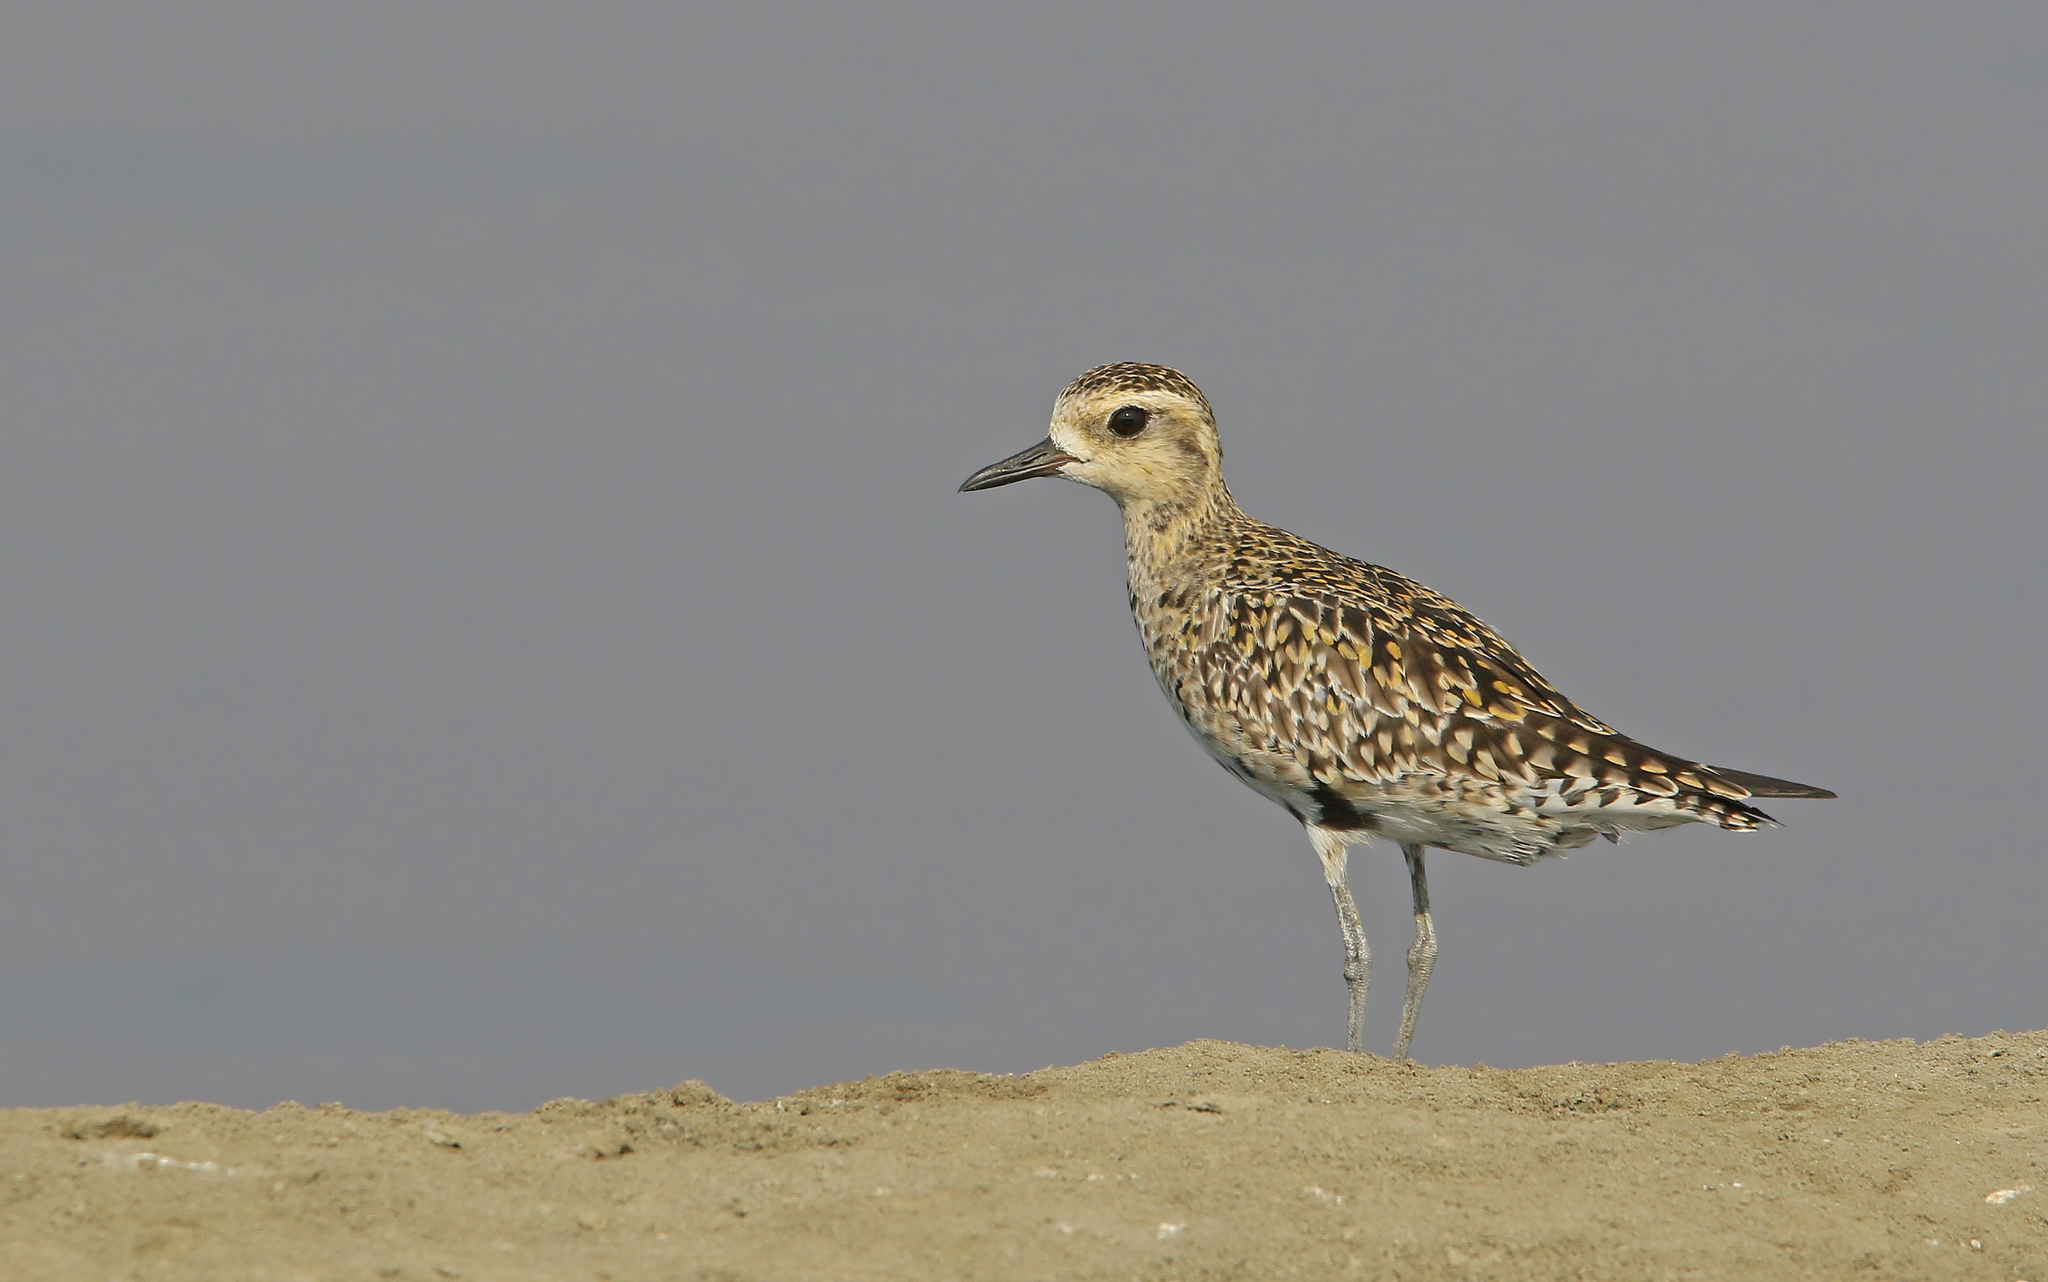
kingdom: Animalia
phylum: Chordata
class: Aves
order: Charadriiformes
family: Charadriidae
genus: Pluvialis
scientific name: Pluvialis fulva
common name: Pacific golden plover
